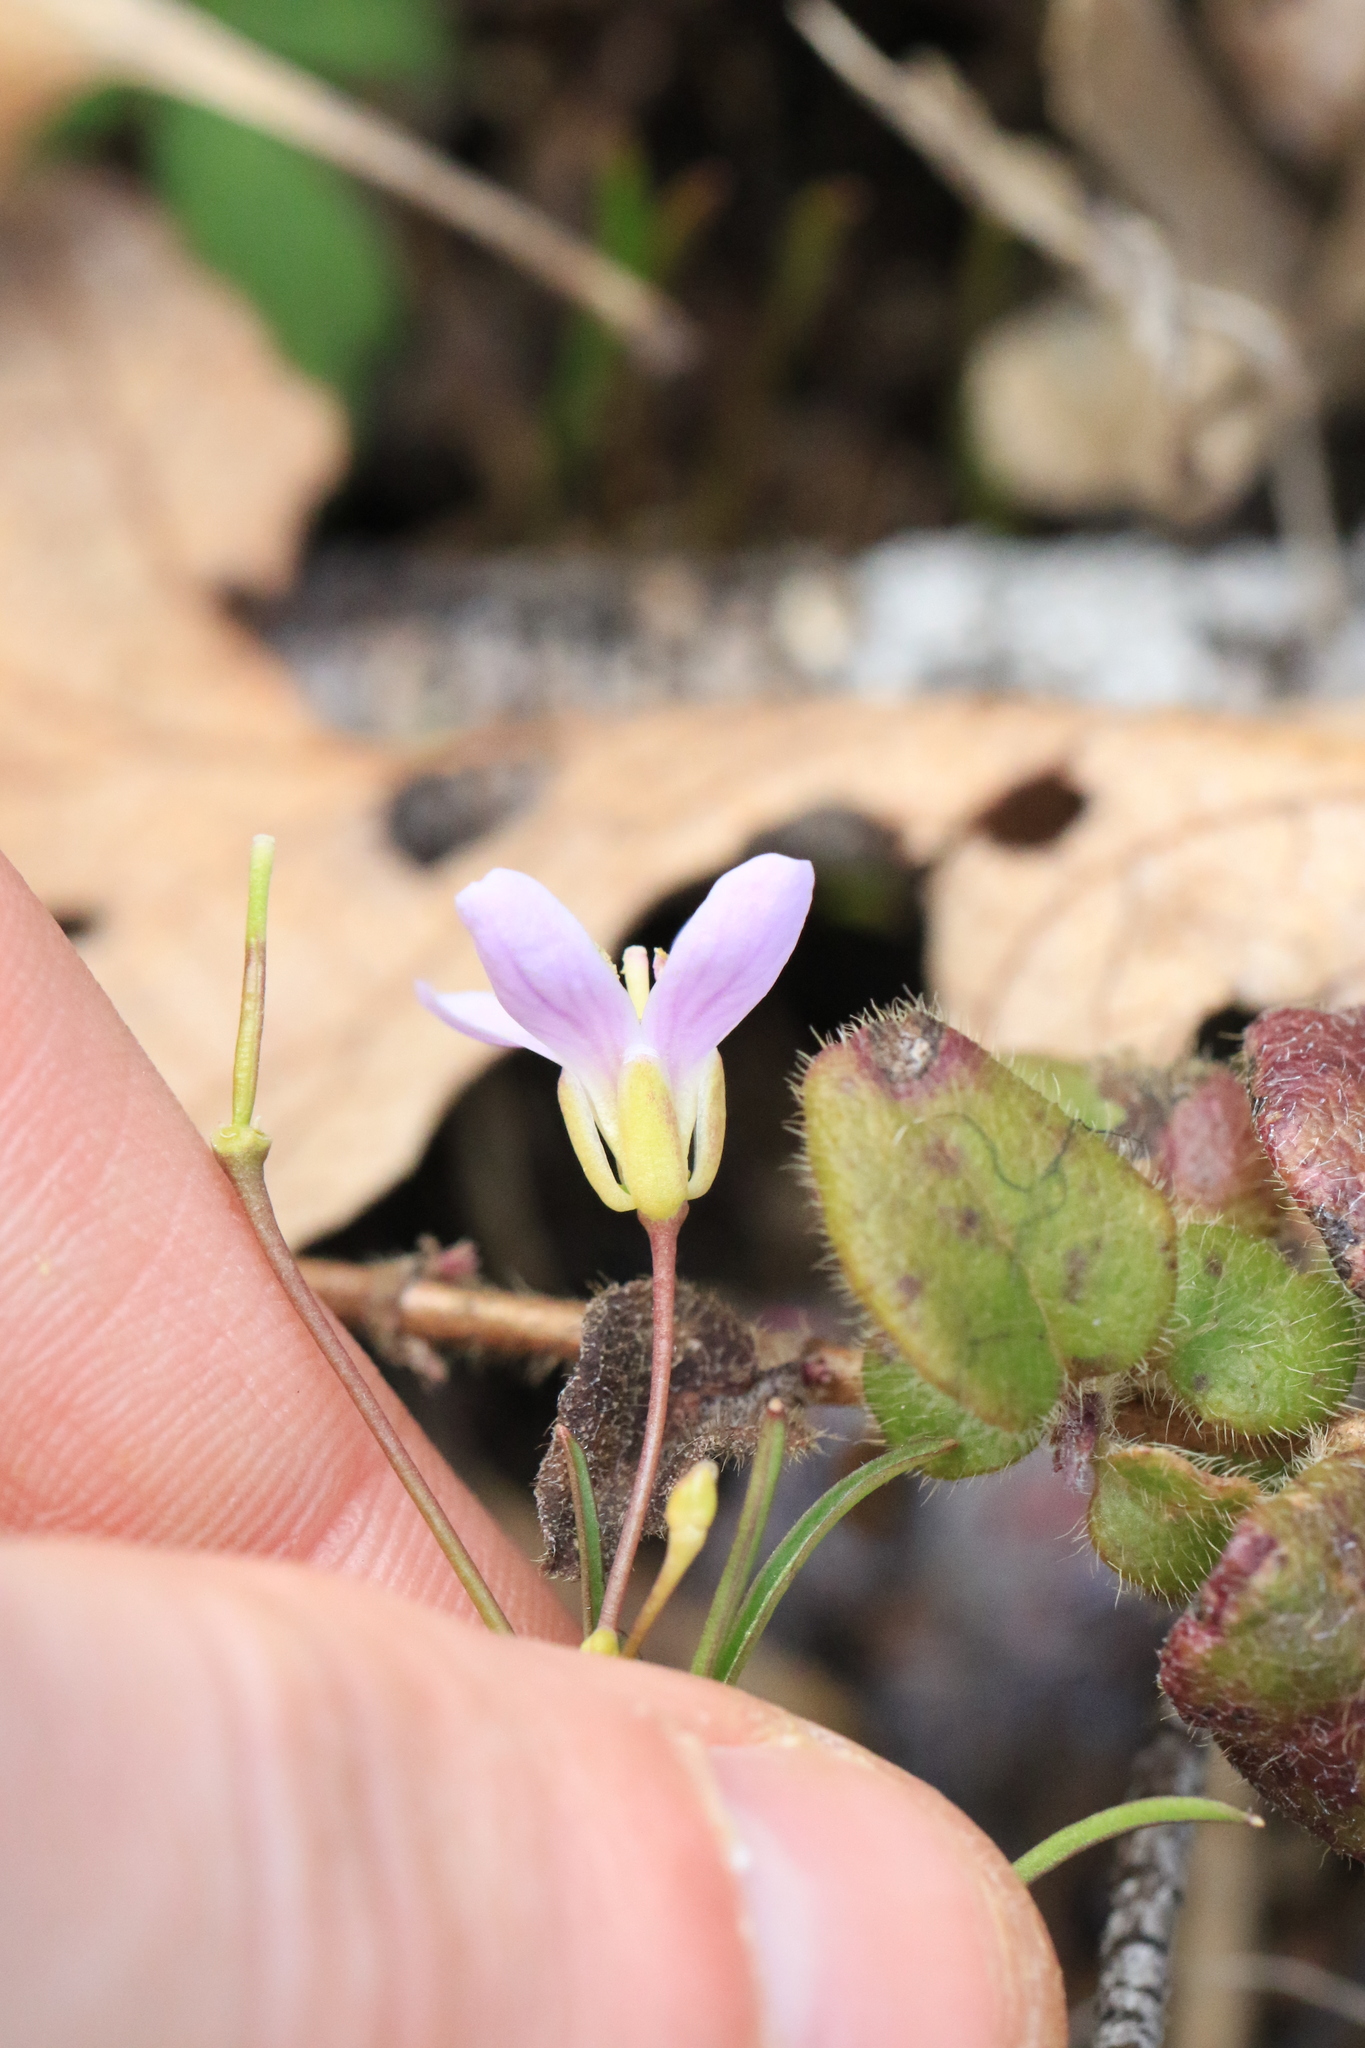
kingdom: Plantae
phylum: Tracheophyta
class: Magnoliopsida
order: Brassicales
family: Brassicaceae
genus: Cardamine
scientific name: Cardamine nuttallii
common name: Nuttall's toothwort
